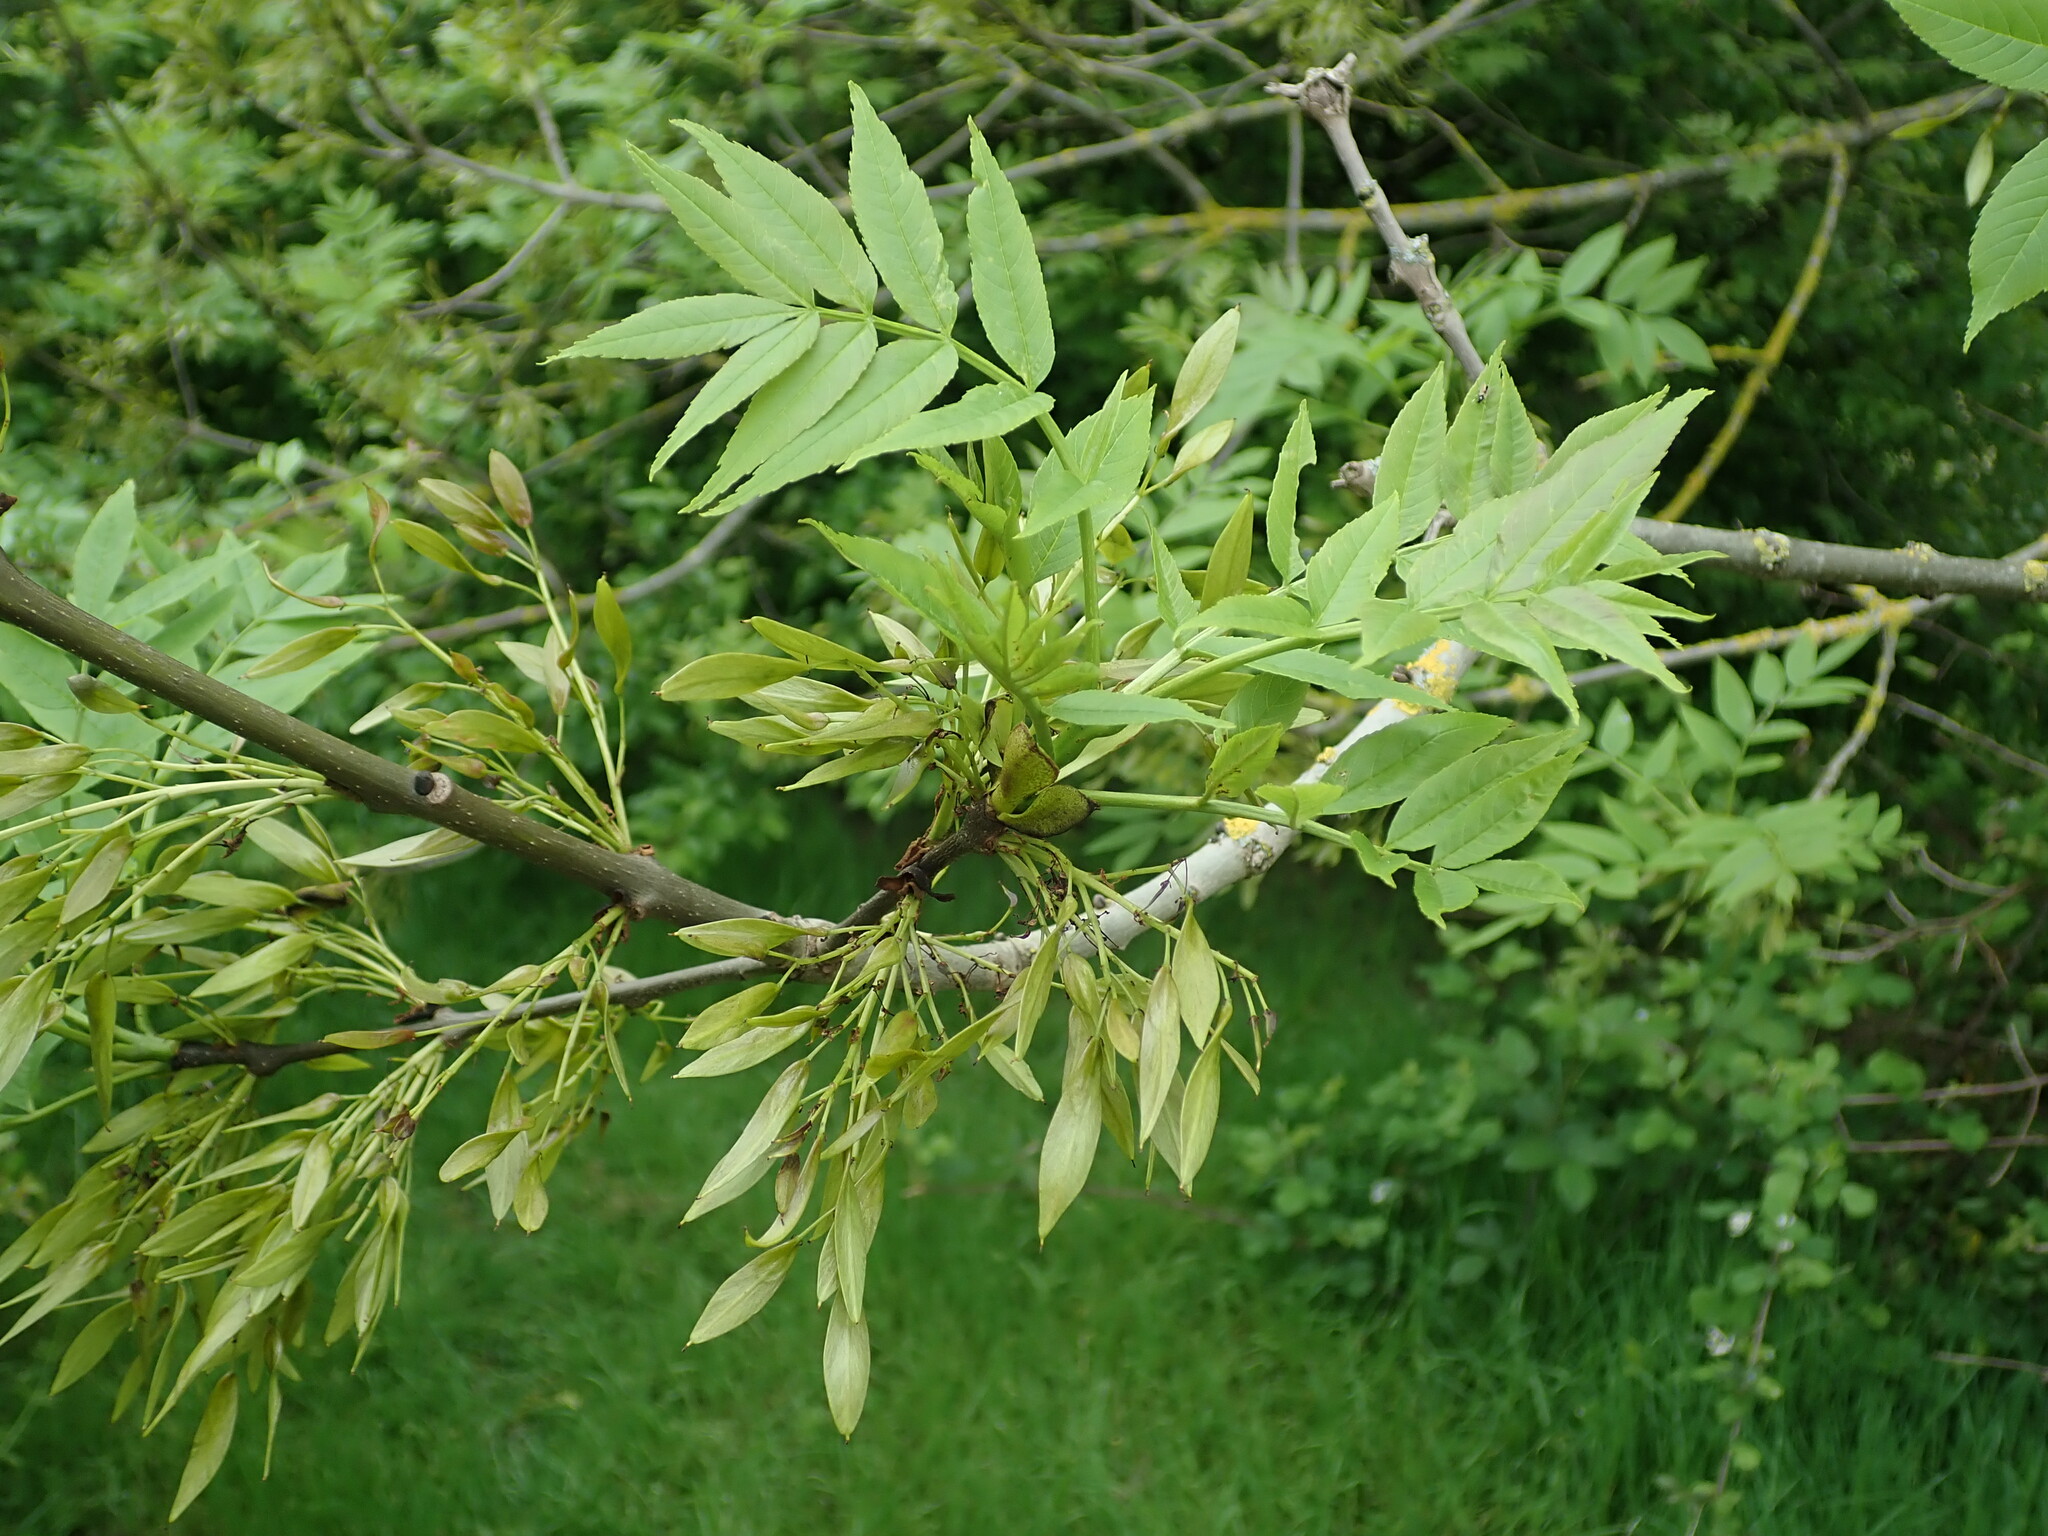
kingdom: Plantae
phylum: Tracheophyta
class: Magnoliopsida
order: Lamiales
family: Oleaceae
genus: Fraxinus
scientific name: Fraxinus excelsior
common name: European ash
